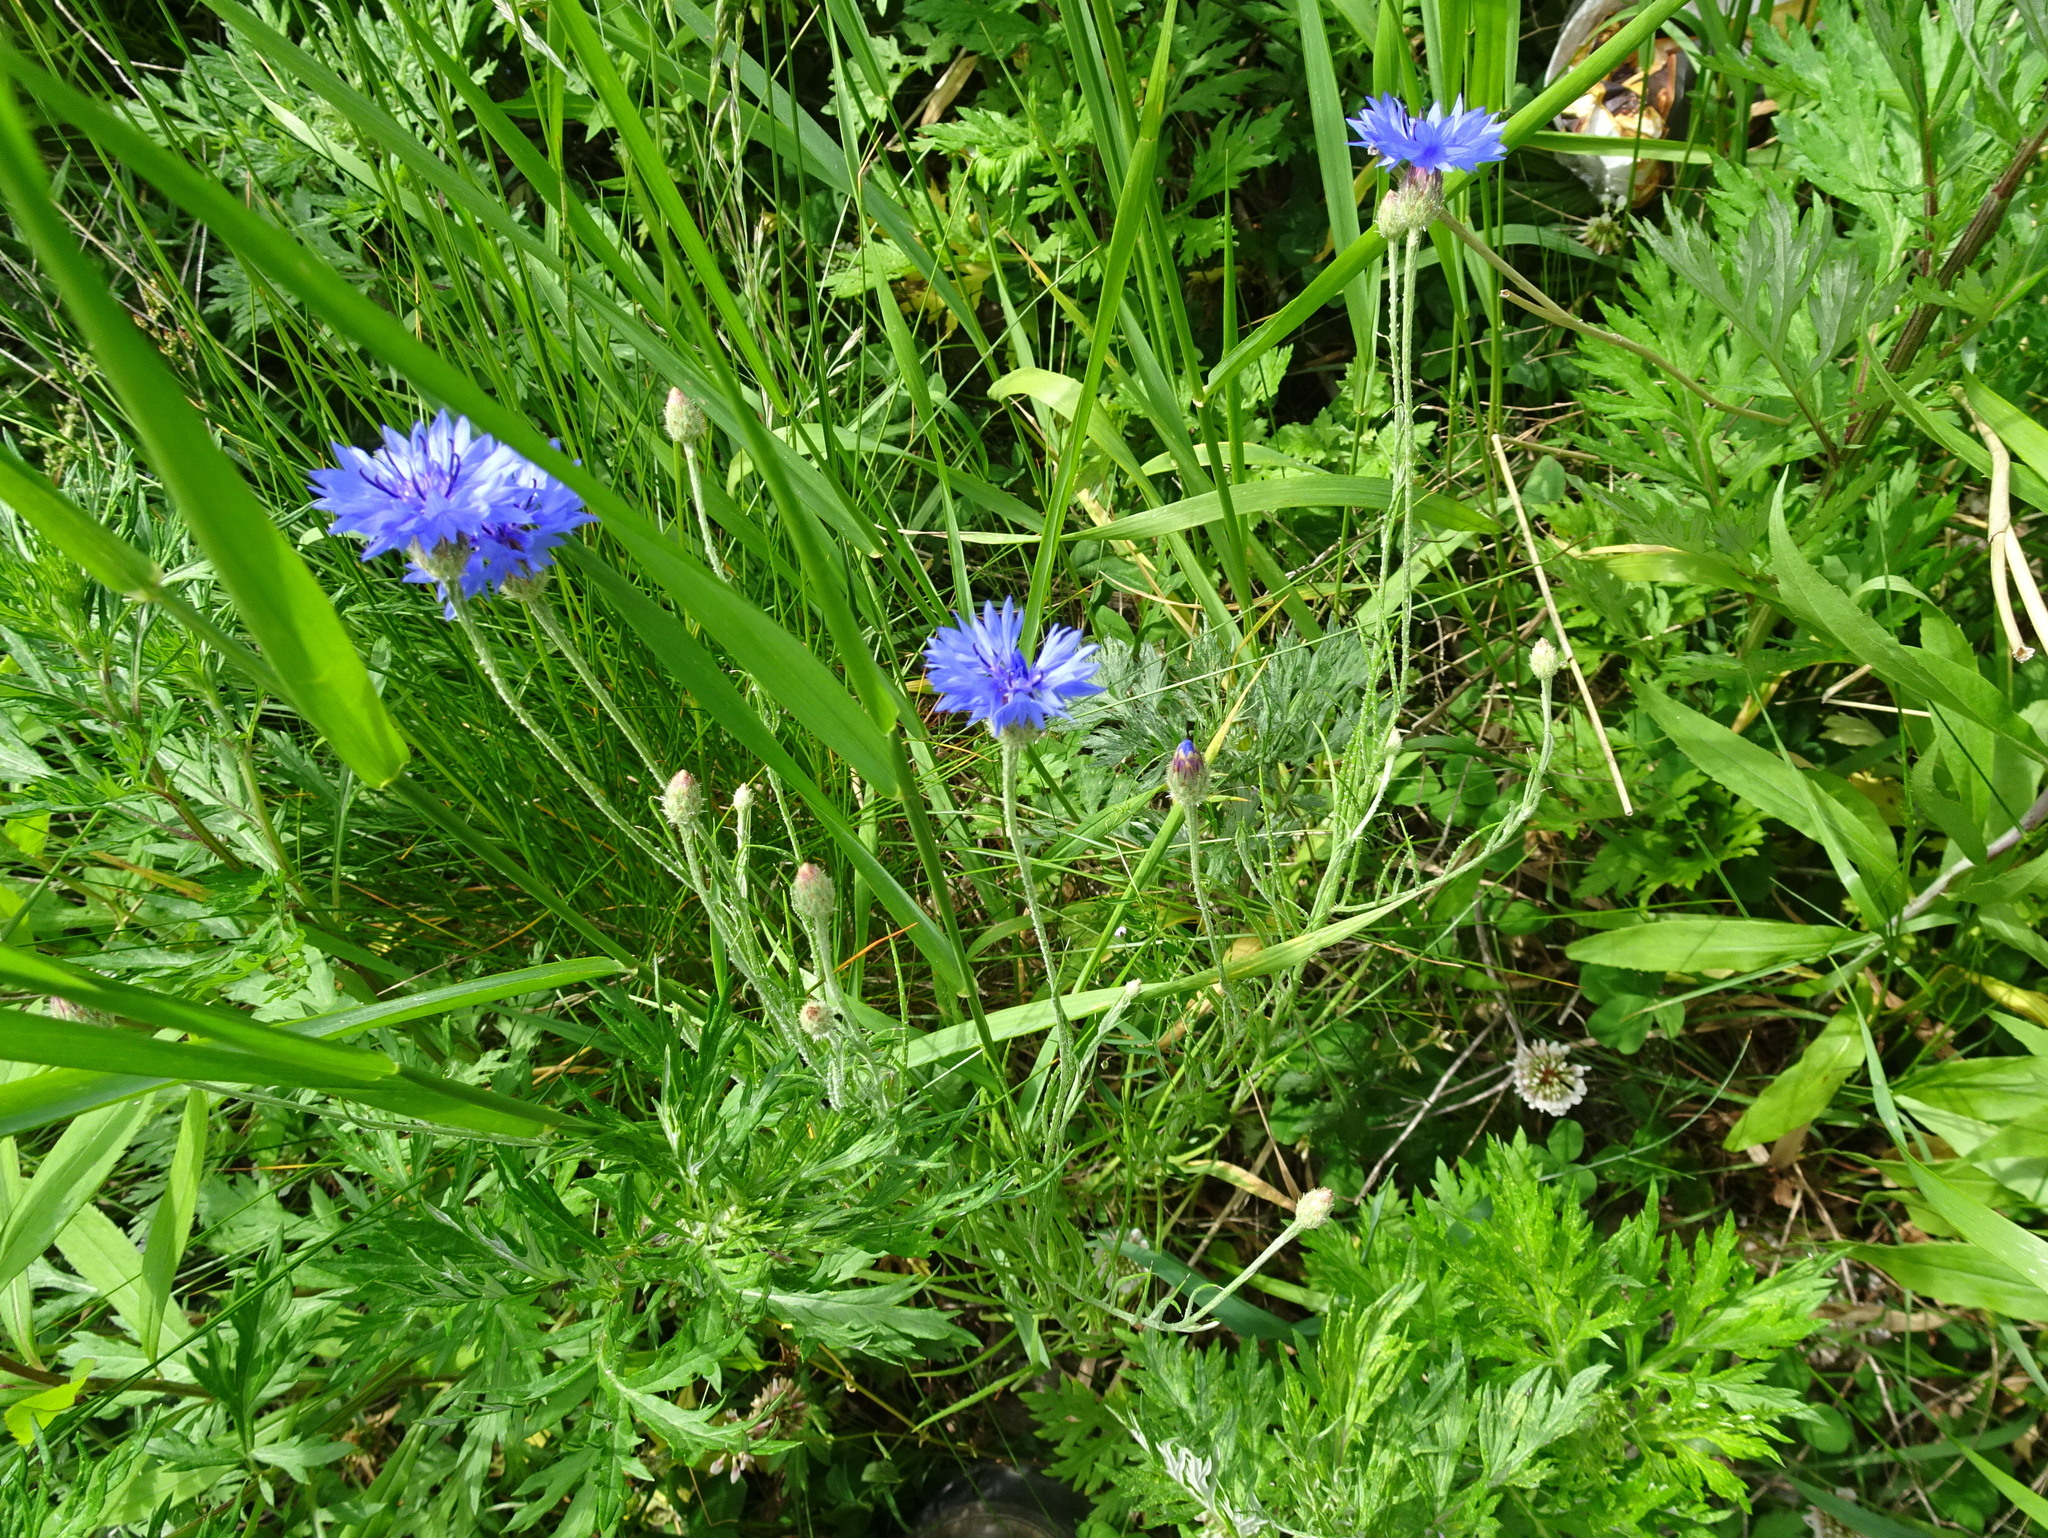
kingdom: Plantae
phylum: Tracheophyta
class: Magnoliopsida
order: Asterales
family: Asteraceae
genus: Centaurea
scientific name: Centaurea cyanus
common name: Cornflower
